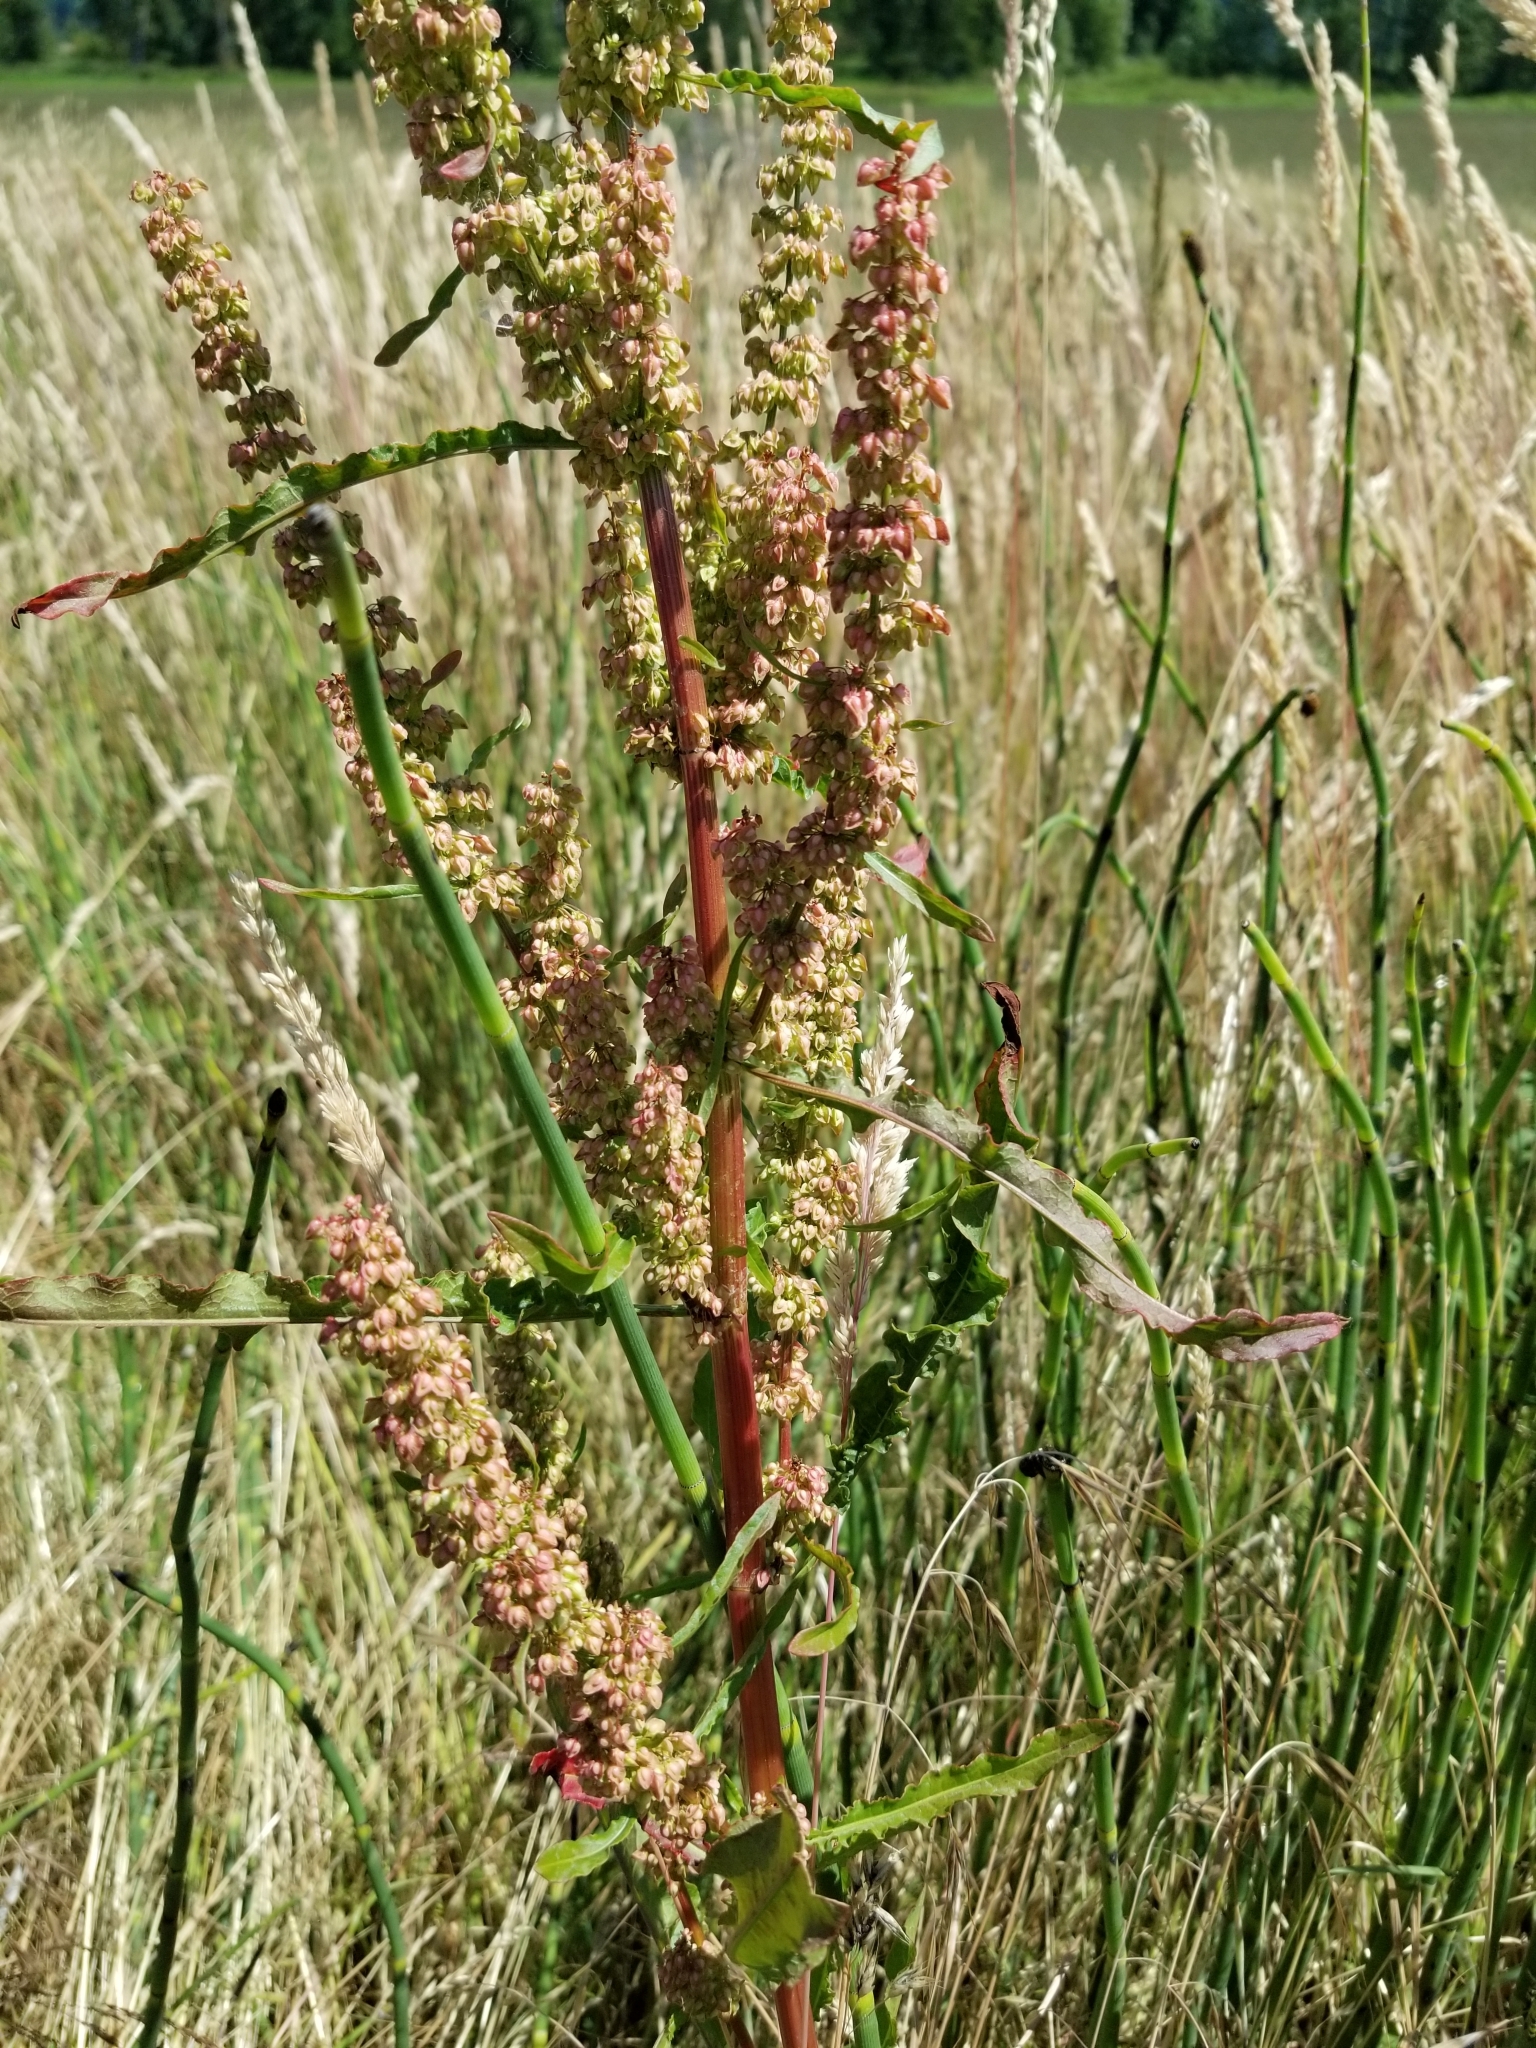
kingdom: Plantae
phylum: Tracheophyta
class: Magnoliopsida
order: Caryophyllales
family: Polygonaceae
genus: Rumex
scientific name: Rumex crispus
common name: Curled dock
